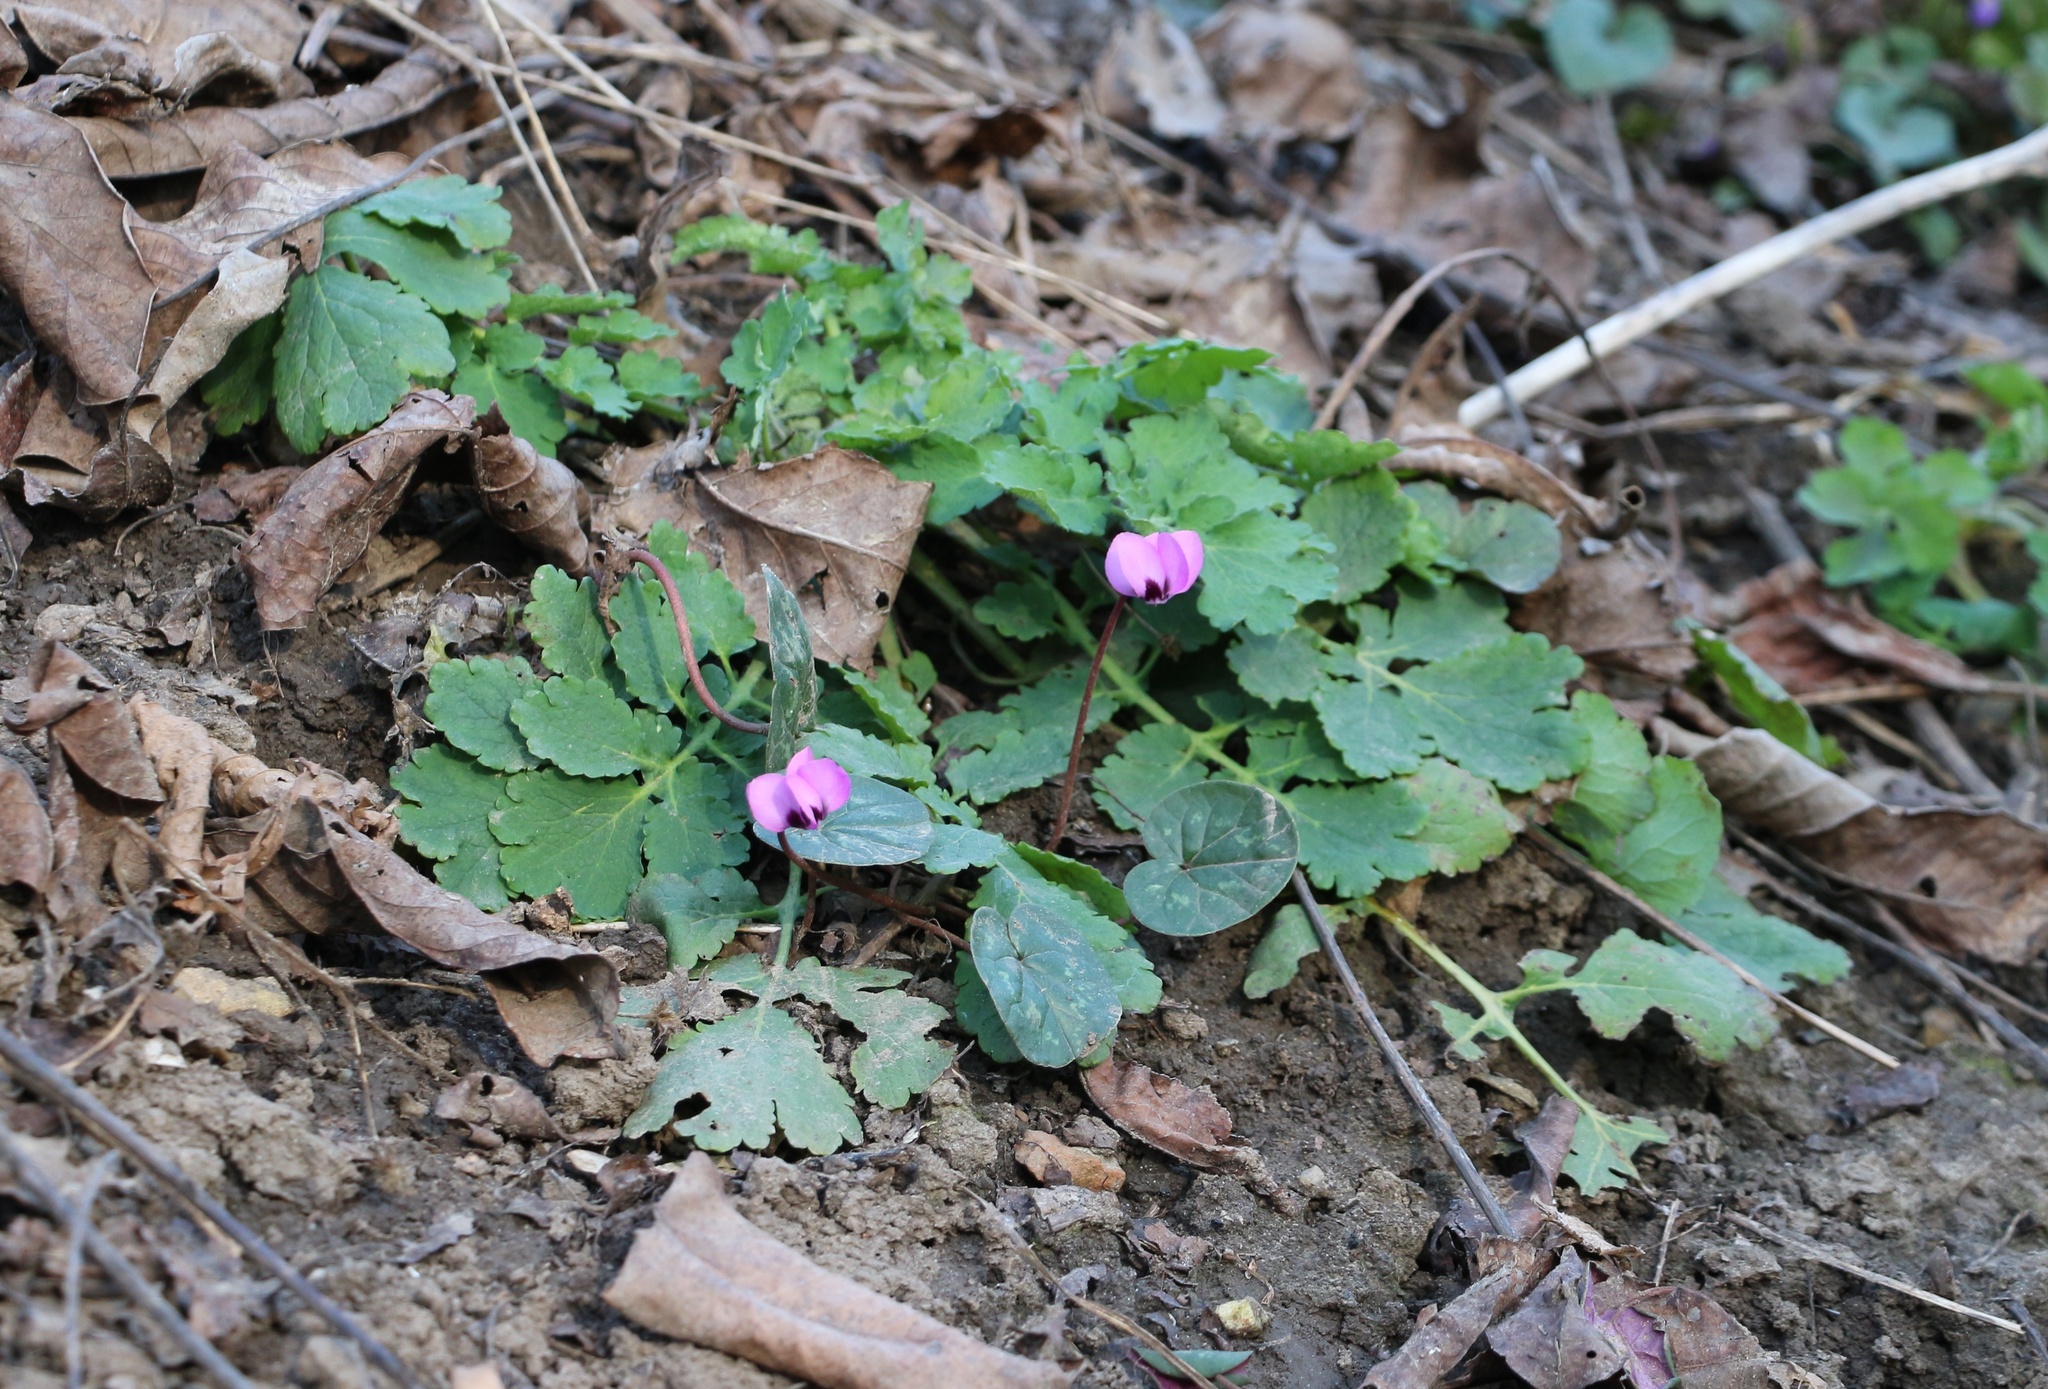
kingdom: Plantae
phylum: Tracheophyta
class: Magnoliopsida
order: Ericales
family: Primulaceae
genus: Cyclamen
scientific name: Cyclamen coum
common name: Eastern sowbread
